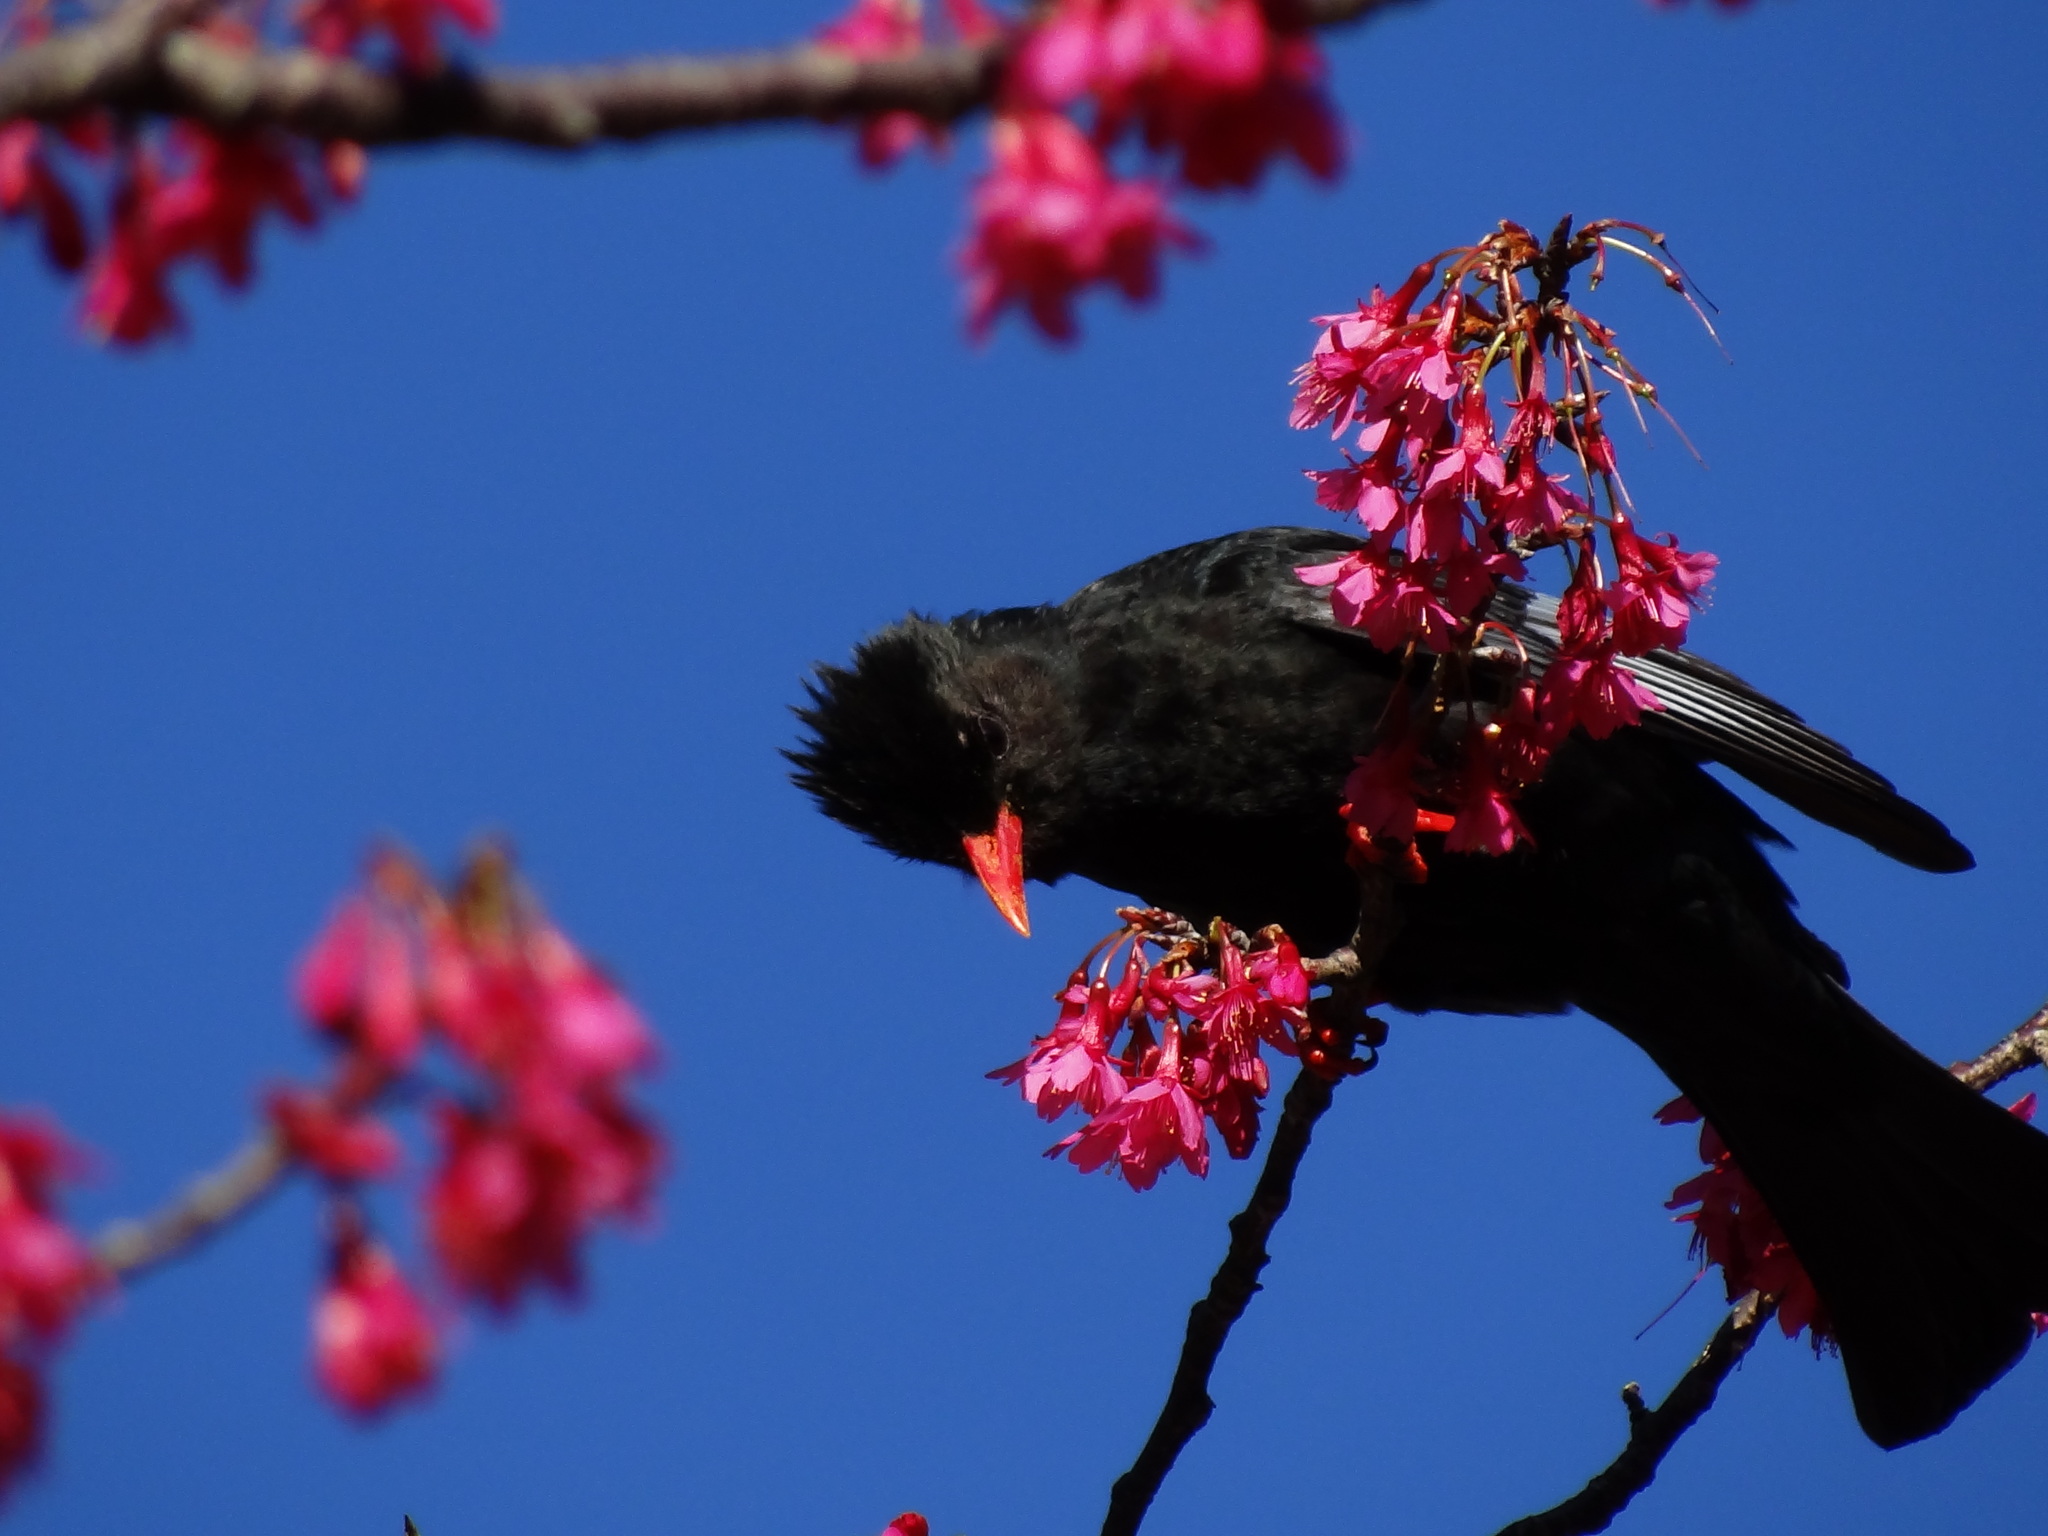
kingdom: Animalia
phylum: Chordata
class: Aves
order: Passeriformes
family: Pycnonotidae
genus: Hypsipetes
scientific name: Hypsipetes leucocephalus
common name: Black bulbul
